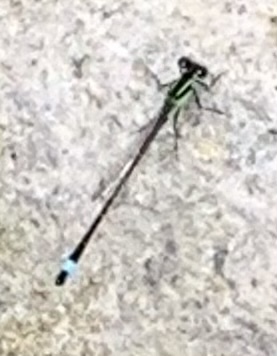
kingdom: Animalia
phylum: Arthropoda
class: Insecta
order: Odonata
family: Coenagrionidae
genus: Ischnura
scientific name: Ischnura ramburii
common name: Rambur's forktail
